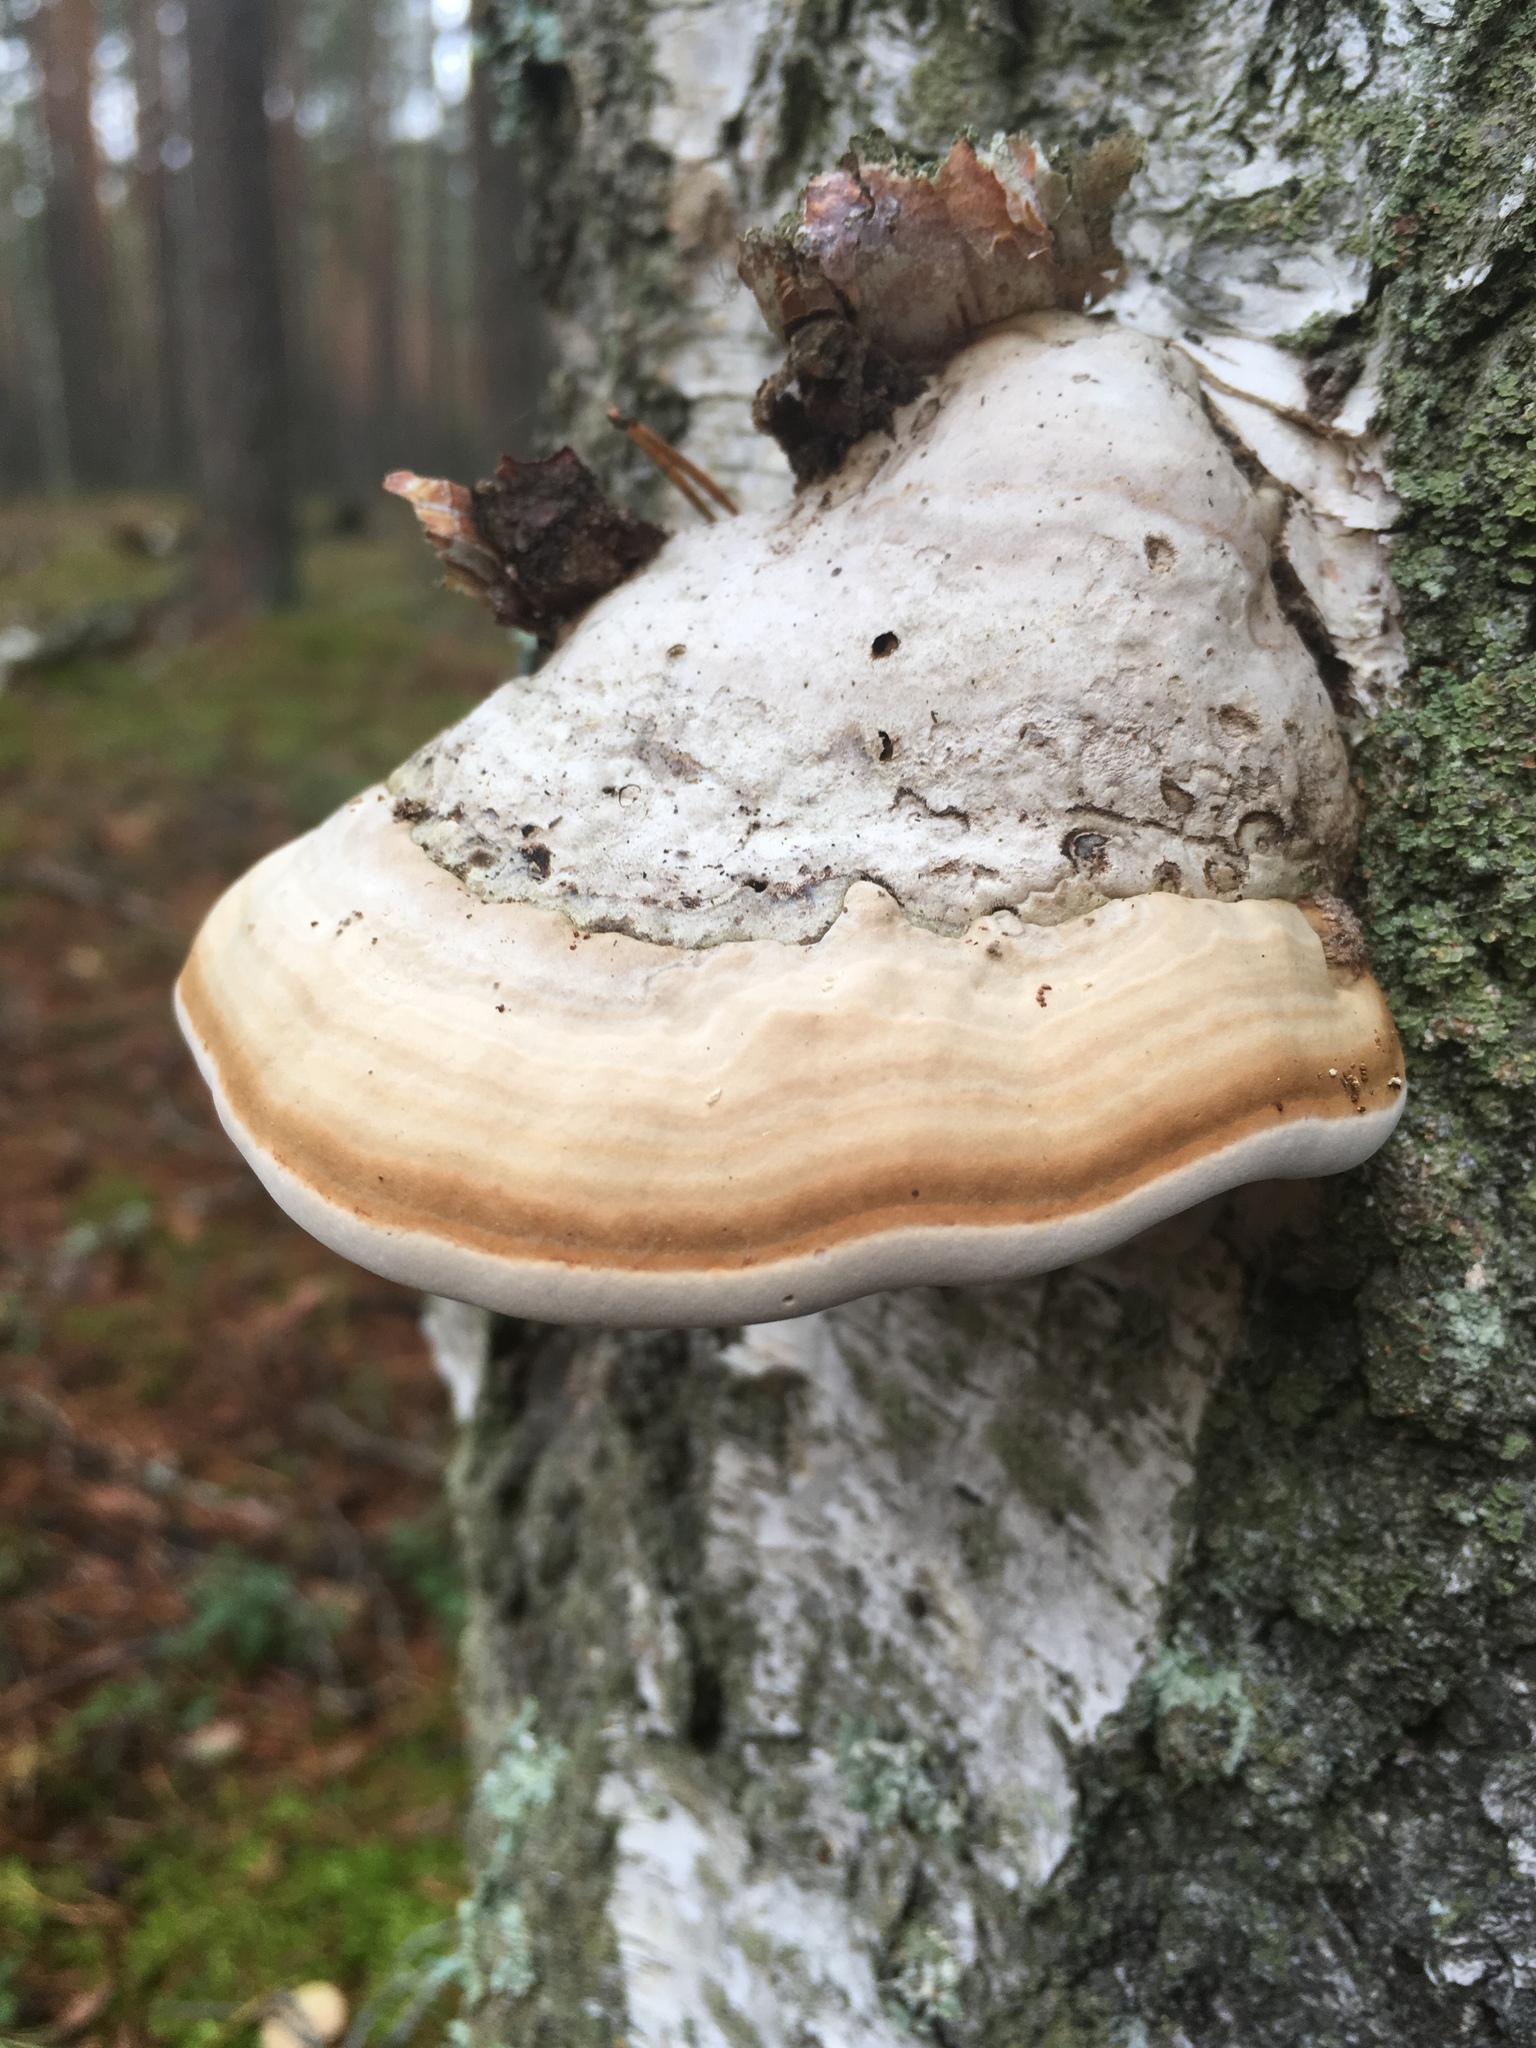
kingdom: Fungi
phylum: Basidiomycota
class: Agaricomycetes
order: Polyporales
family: Polyporaceae
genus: Fomes
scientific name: Fomes fomentarius
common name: Hoof fungus
